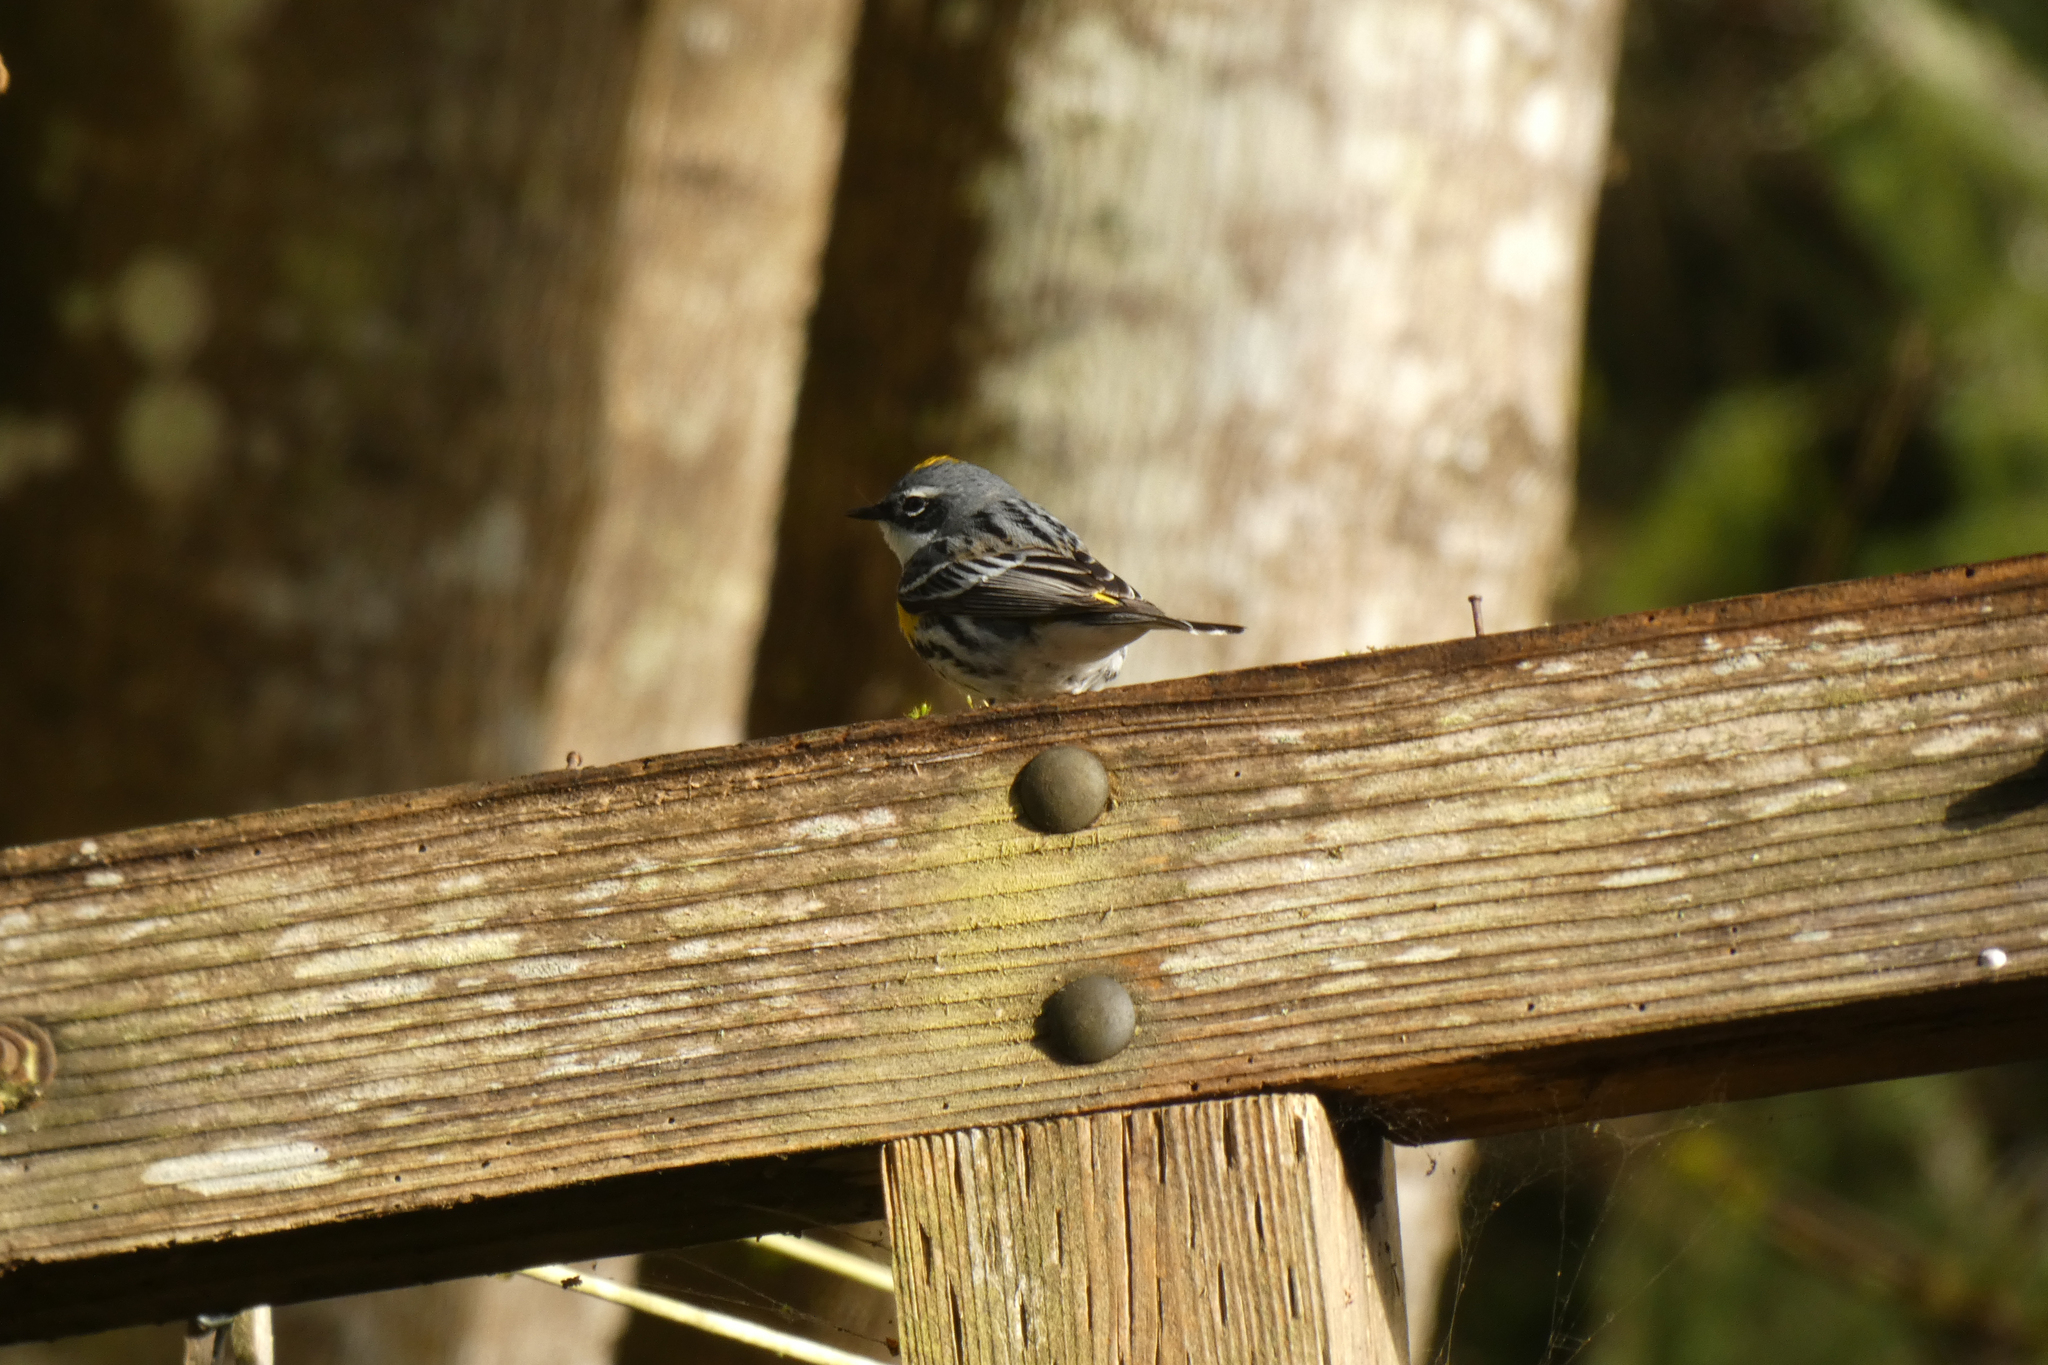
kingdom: Animalia
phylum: Chordata
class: Aves
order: Passeriformes
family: Parulidae
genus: Setophaga
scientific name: Setophaga coronata
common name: Myrtle warbler
